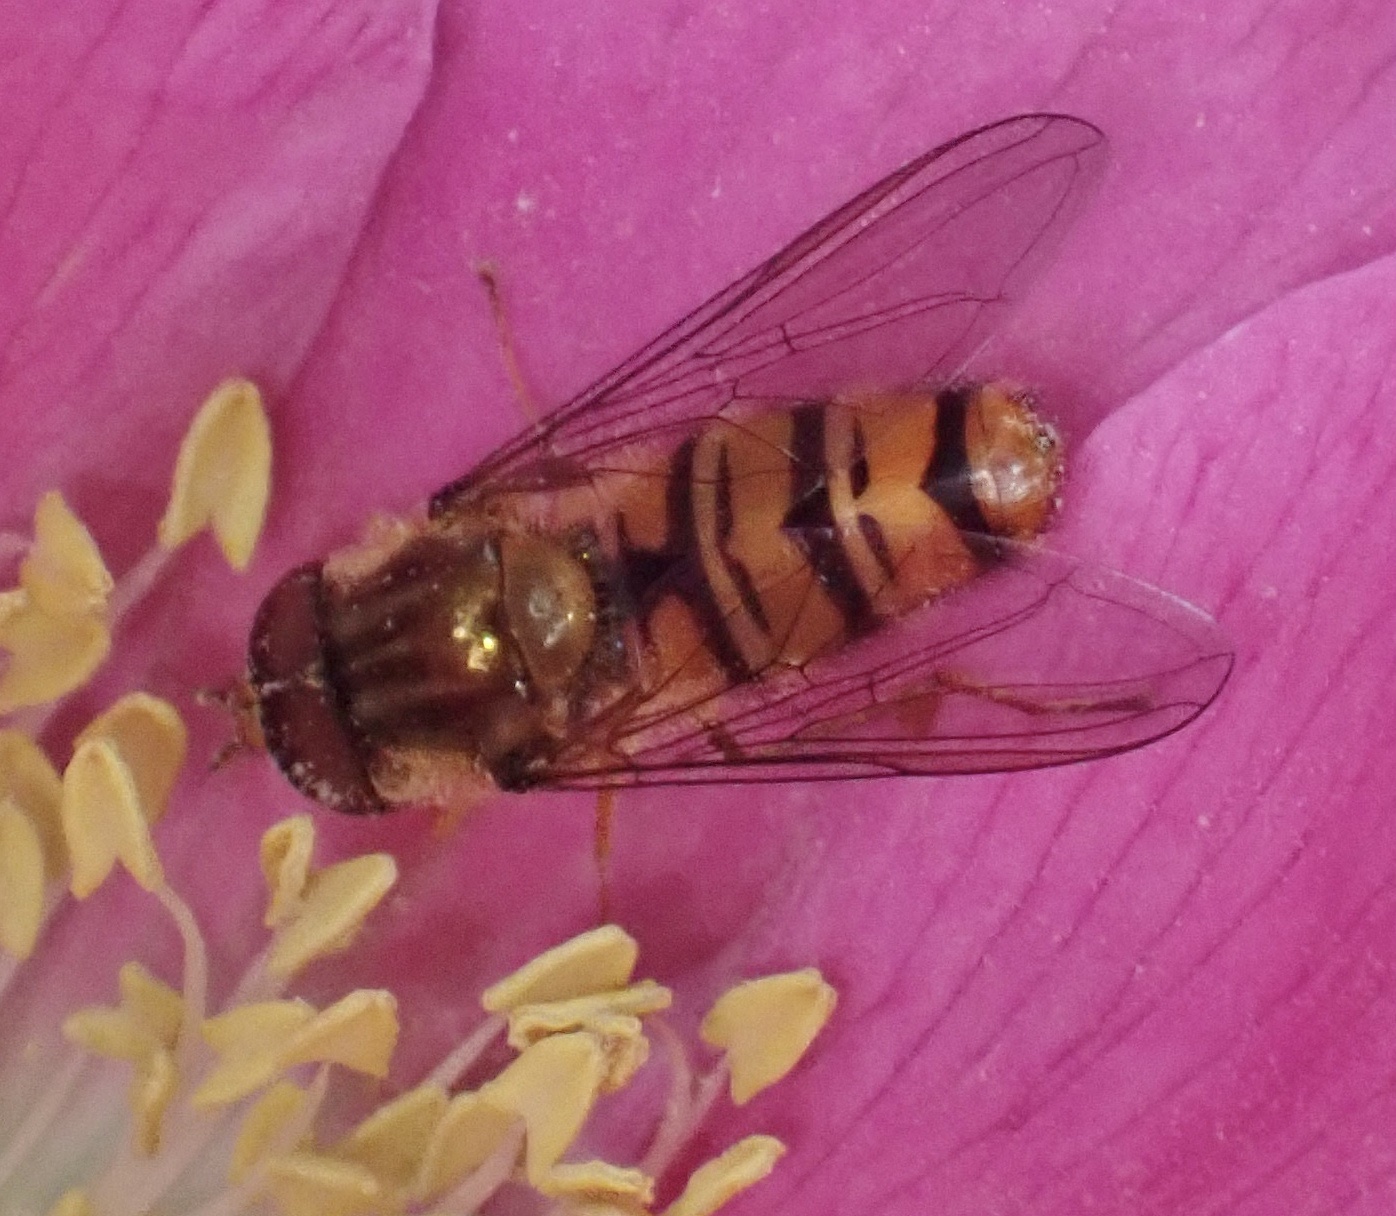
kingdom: Animalia
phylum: Arthropoda
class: Insecta
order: Diptera
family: Syrphidae
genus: Episyrphus
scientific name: Episyrphus balteatus
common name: Marmalade hoverfly
